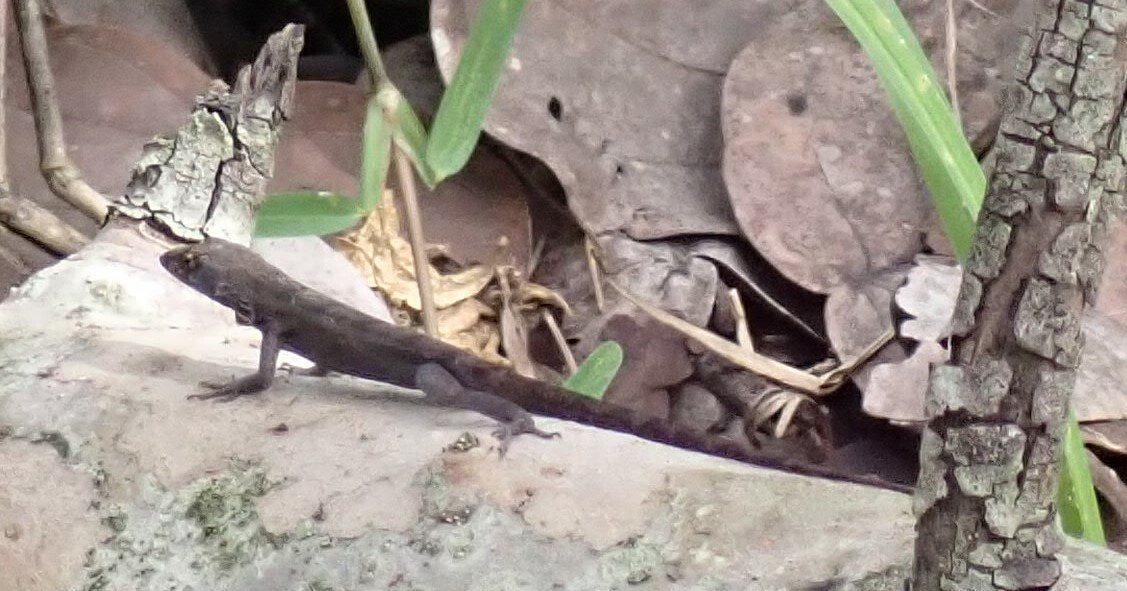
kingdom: Animalia
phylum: Chordata
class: Squamata
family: Dactyloidae
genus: Anolis
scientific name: Anolis sagrei
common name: Brown anole
